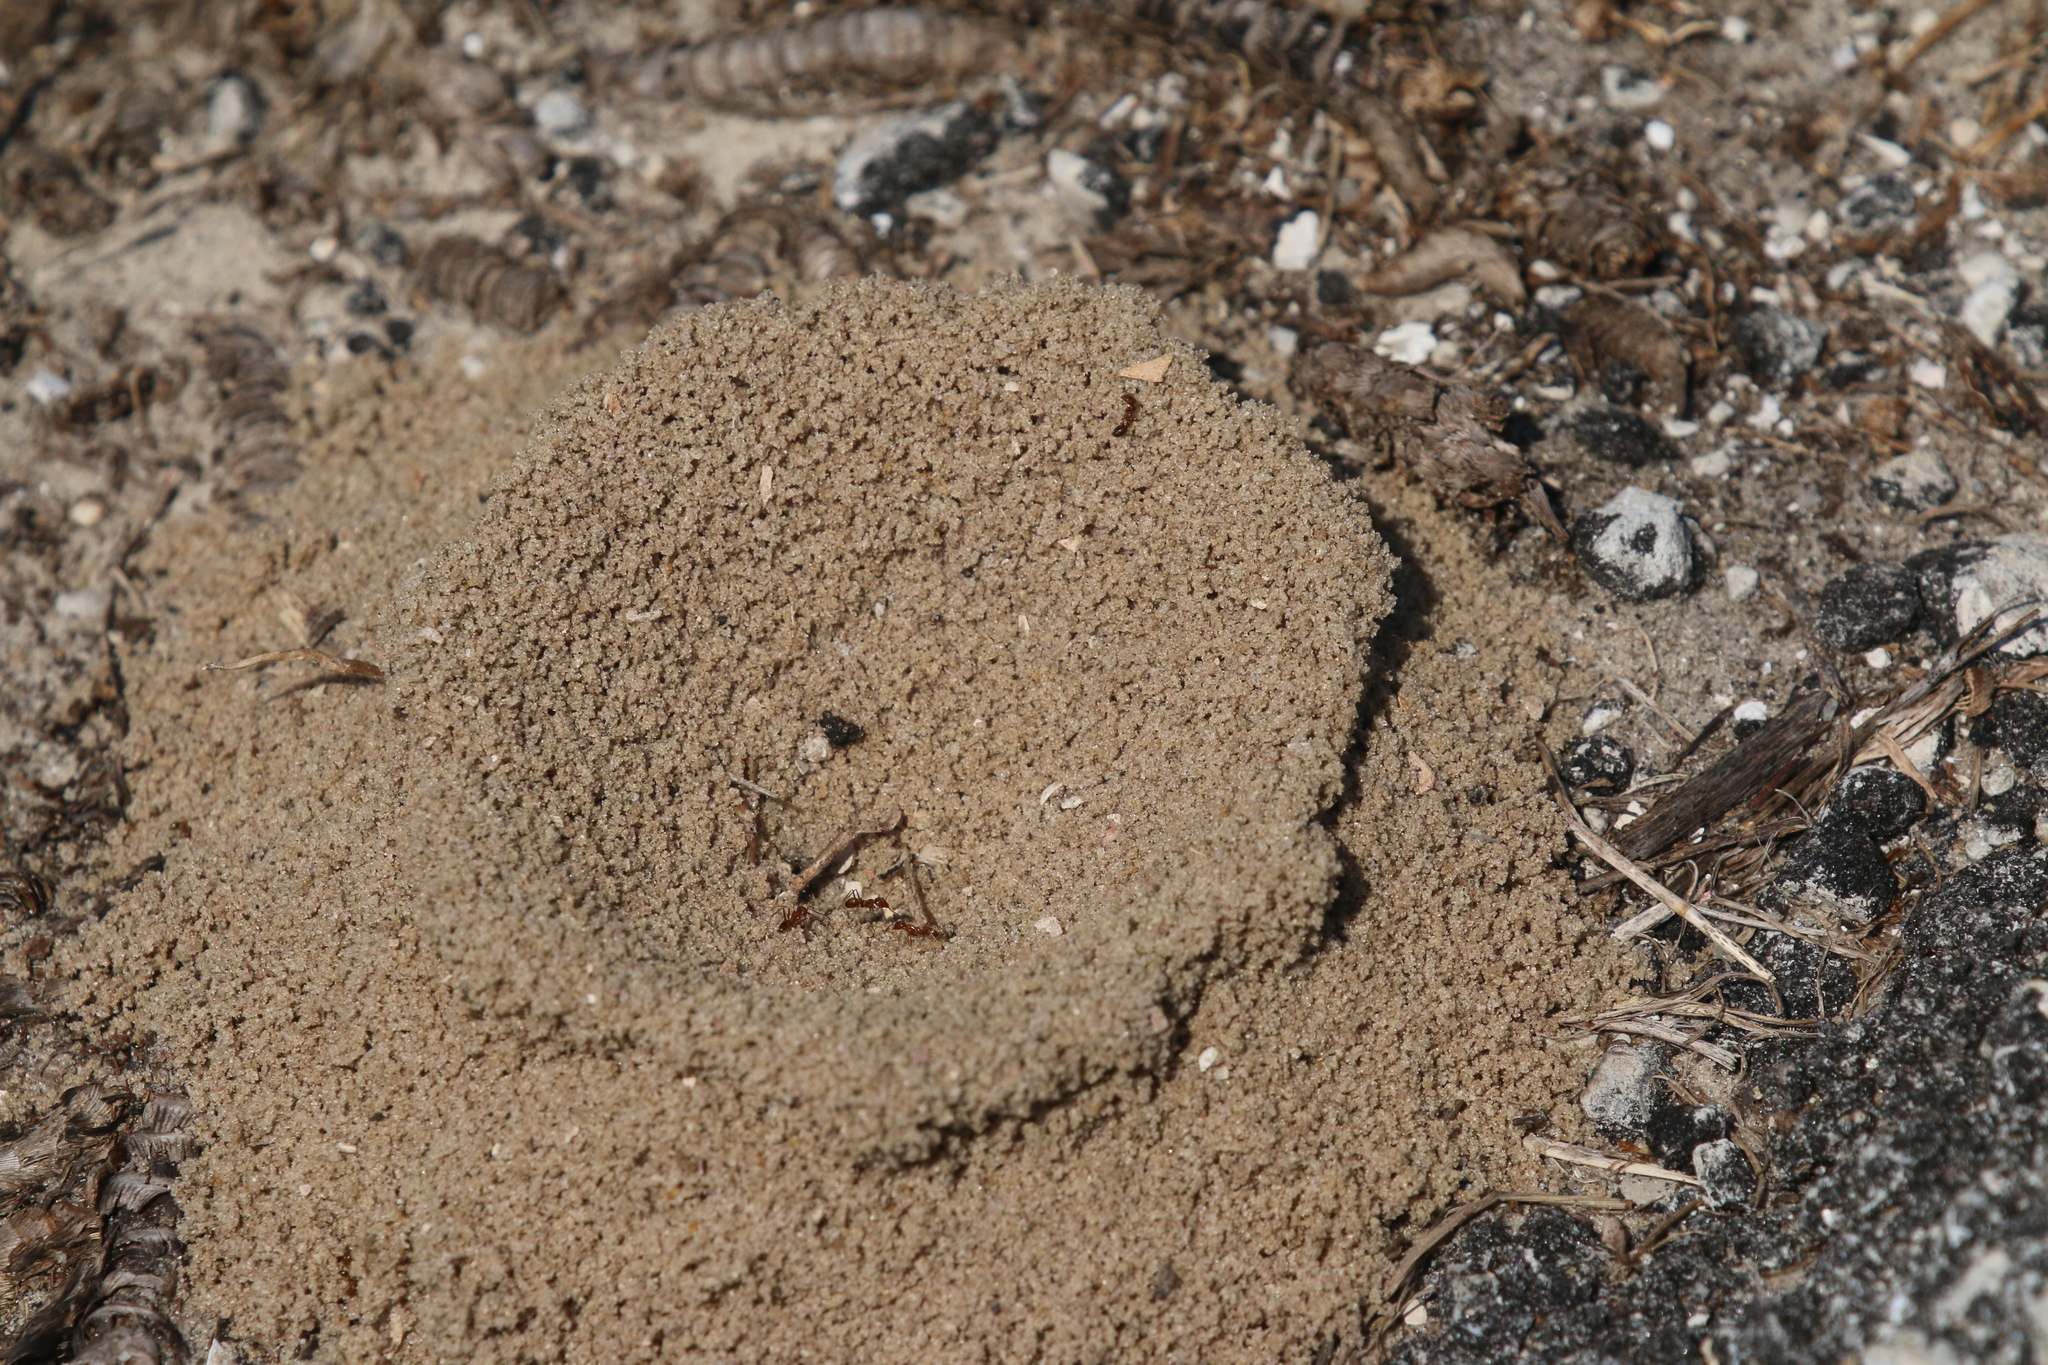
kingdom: Animalia
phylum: Arthropoda
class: Insecta
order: Hymenoptera
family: Formicidae
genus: Dorymyrmex
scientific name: Dorymyrmex bureni
